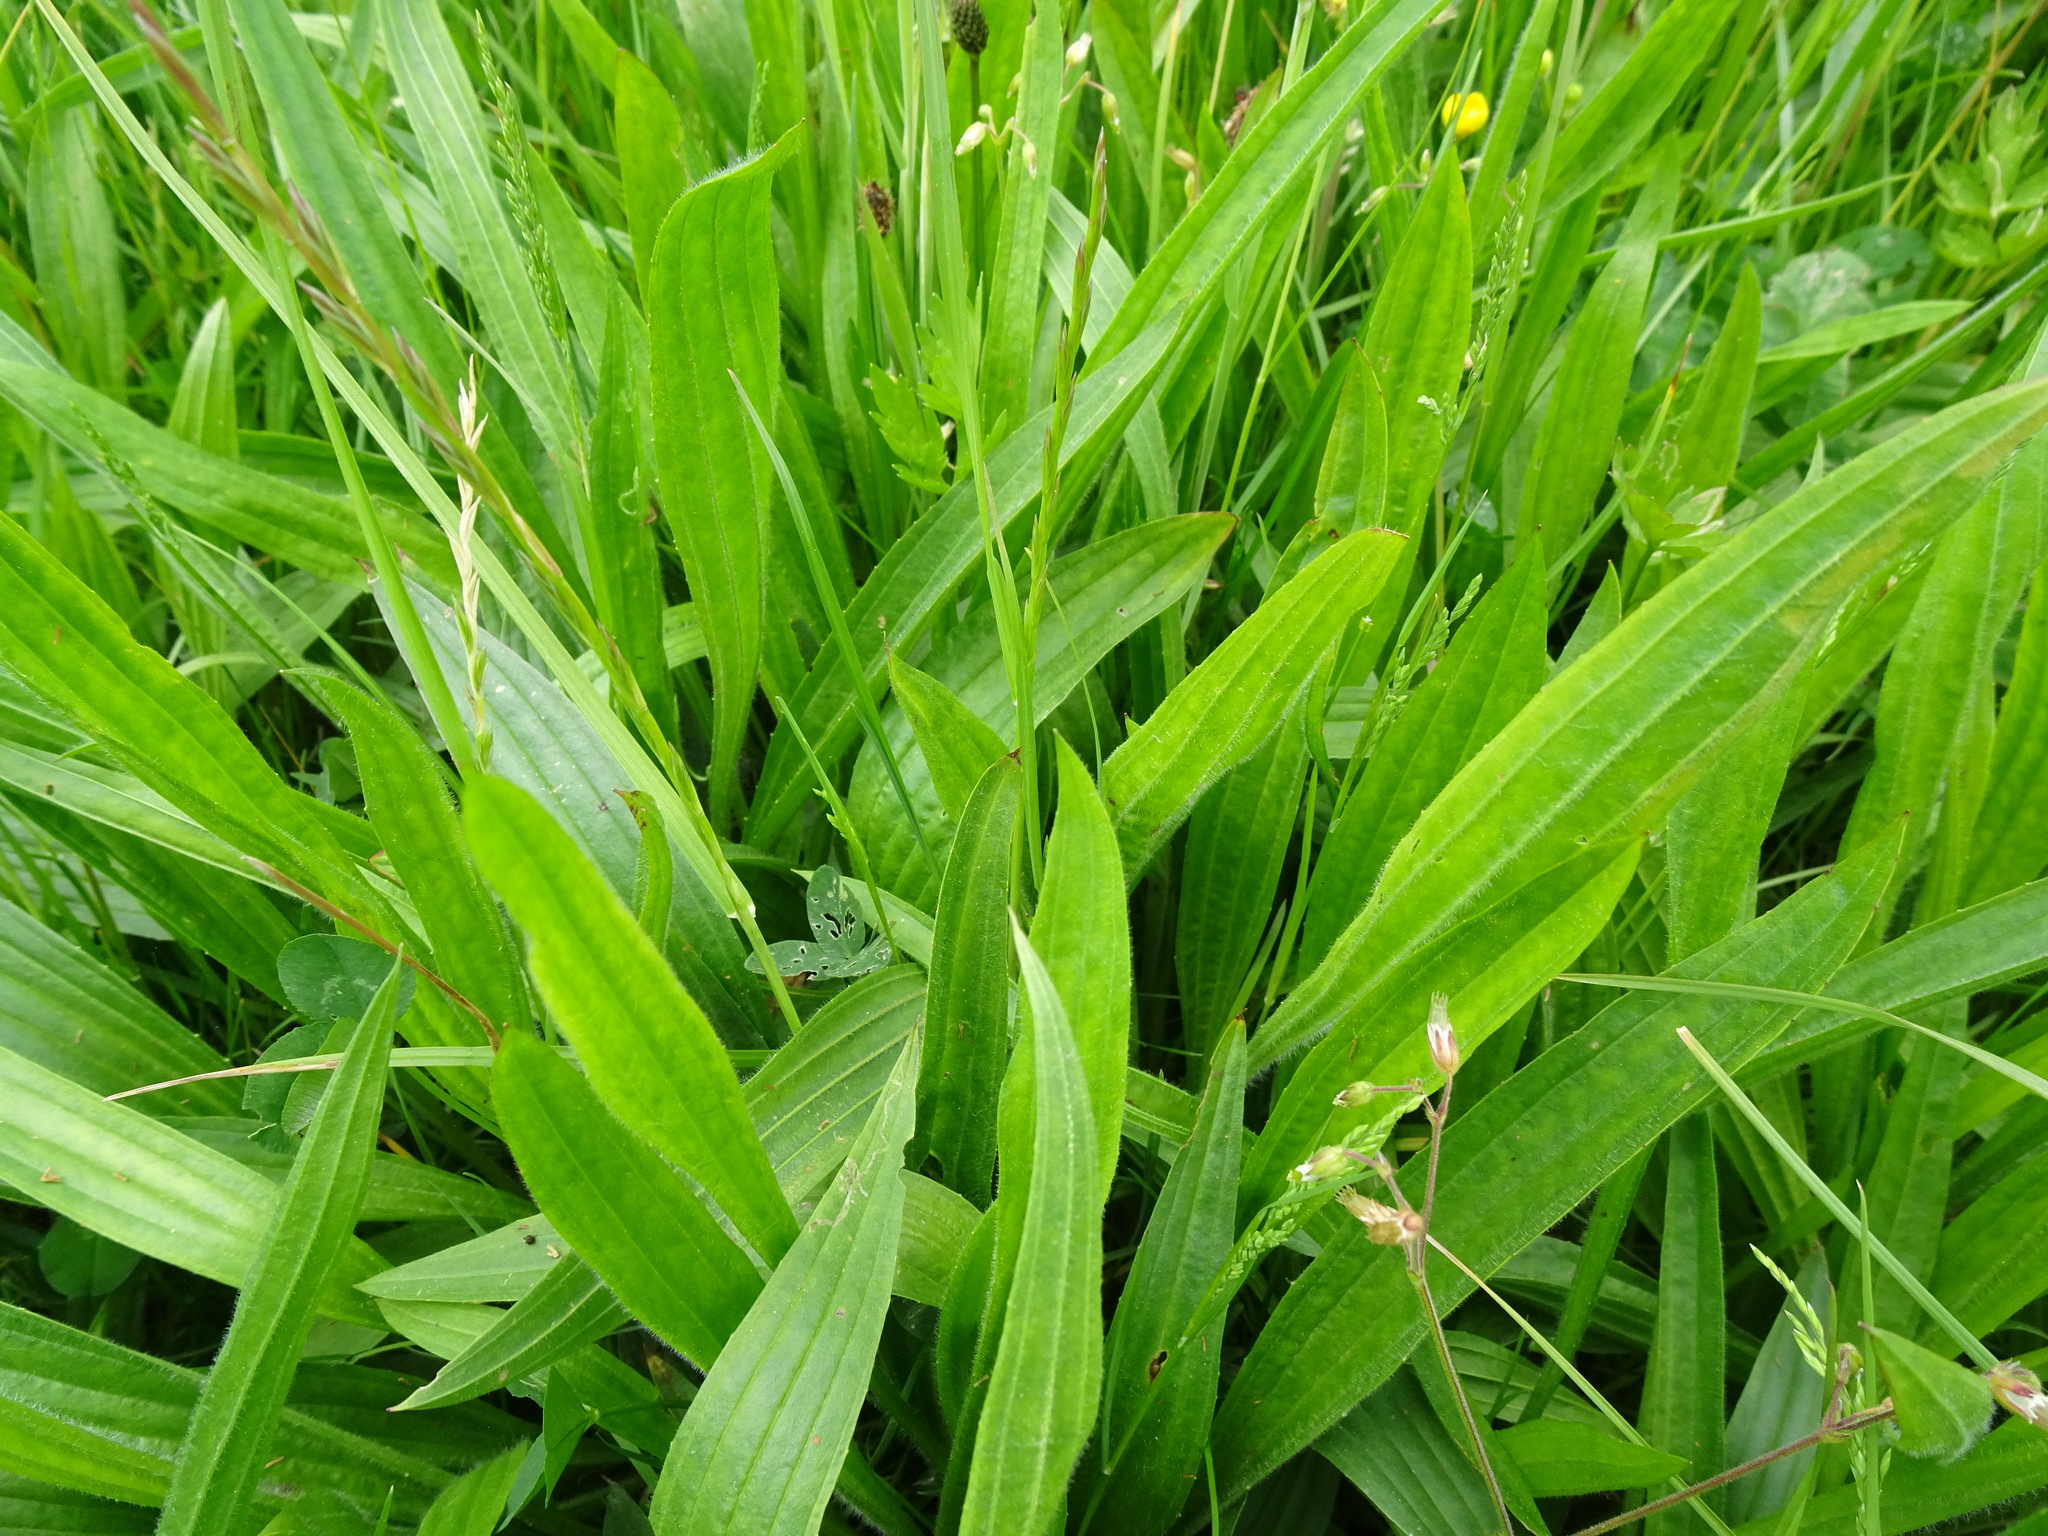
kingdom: Plantae
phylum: Tracheophyta
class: Magnoliopsida
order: Lamiales
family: Plantaginaceae
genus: Plantago
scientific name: Plantago lanceolata
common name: Ribwort plantain
